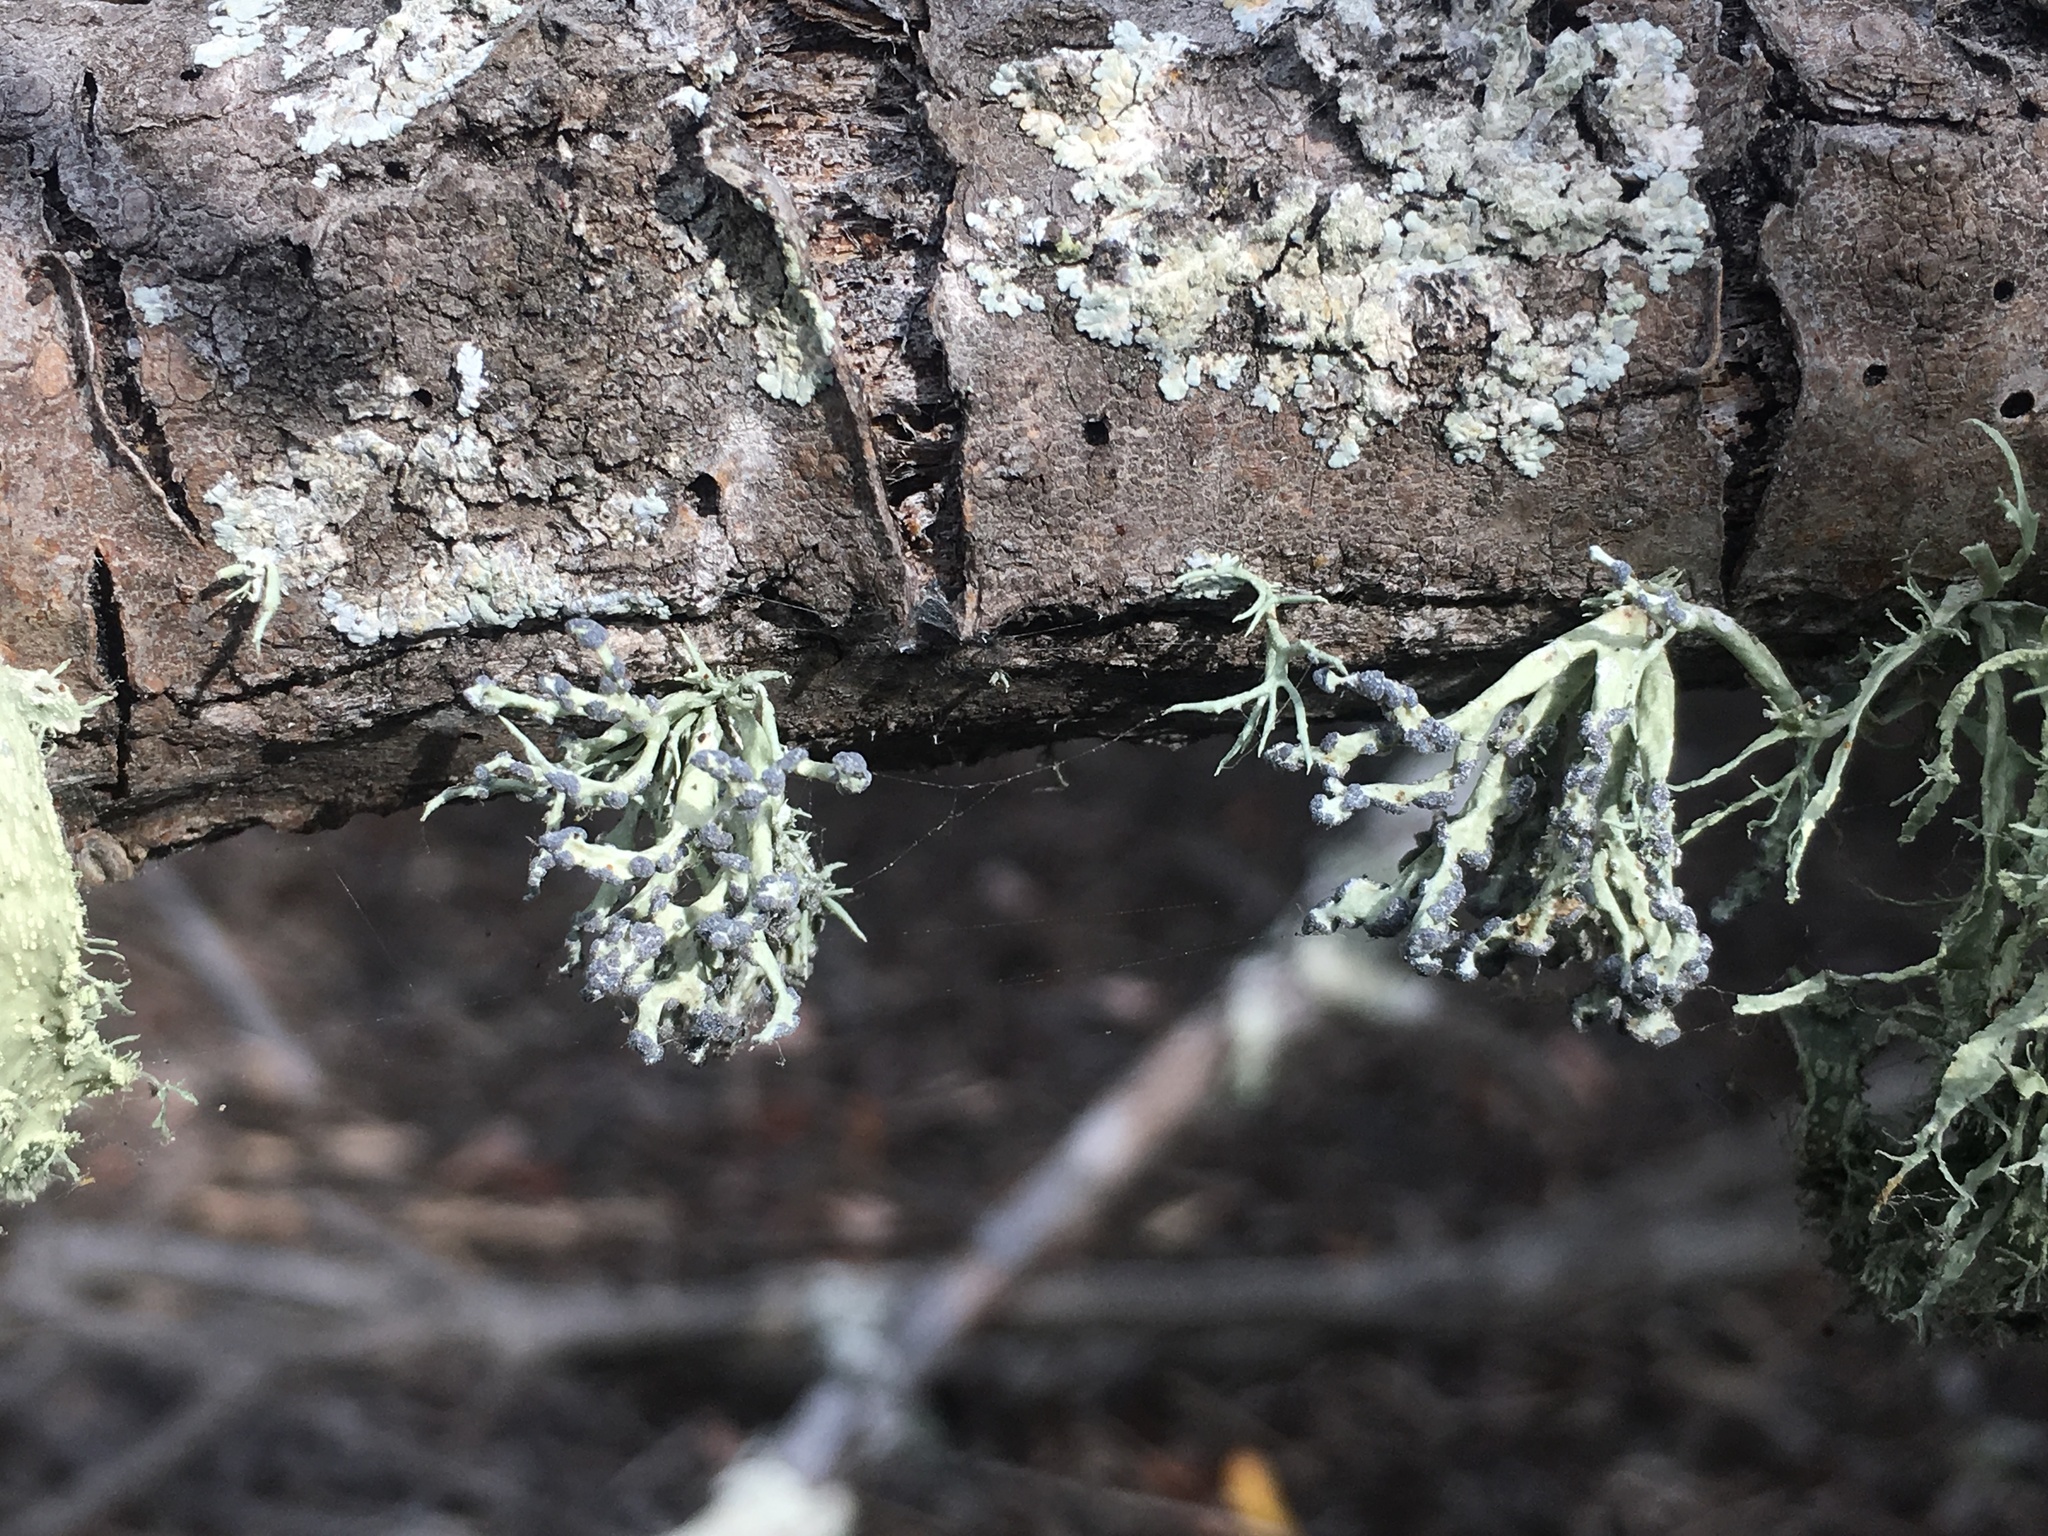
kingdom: Fungi
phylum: Ascomycota
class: Lecanoromycetes
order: Lecanorales
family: Ramalinaceae
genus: Niebla
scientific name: Niebla cephalota
